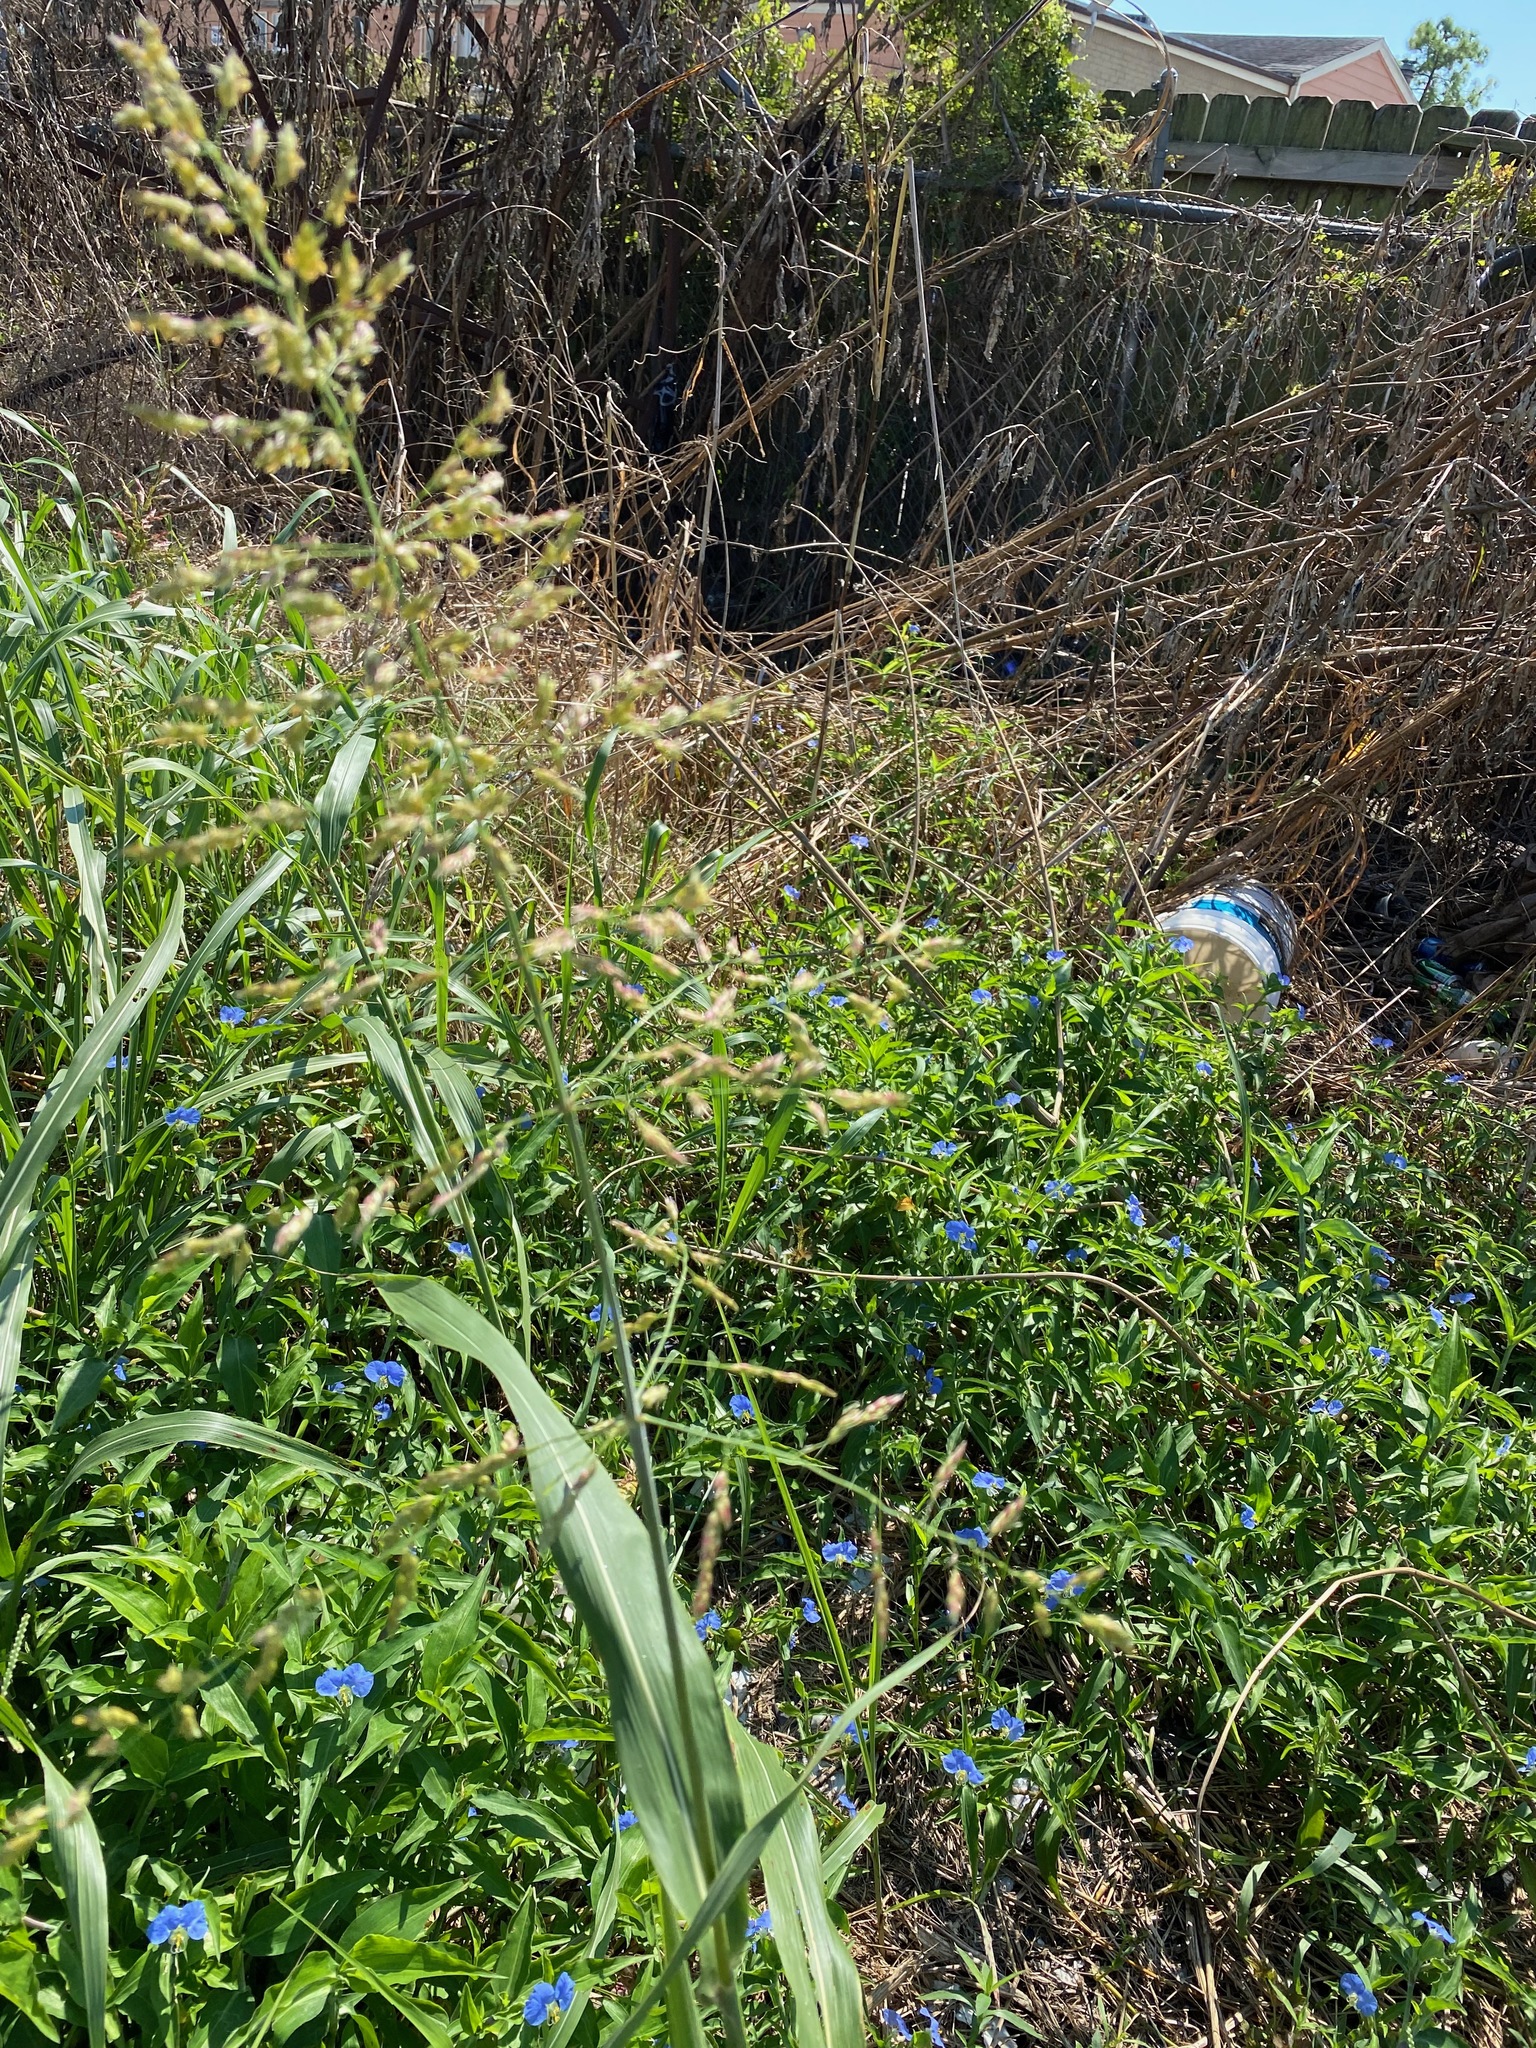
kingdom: Plantae
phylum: Tracheophyta
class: Liliopsida
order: Poales
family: Poaceae
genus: Sorghum
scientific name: Sorghum halepense
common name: Johnson-grass
